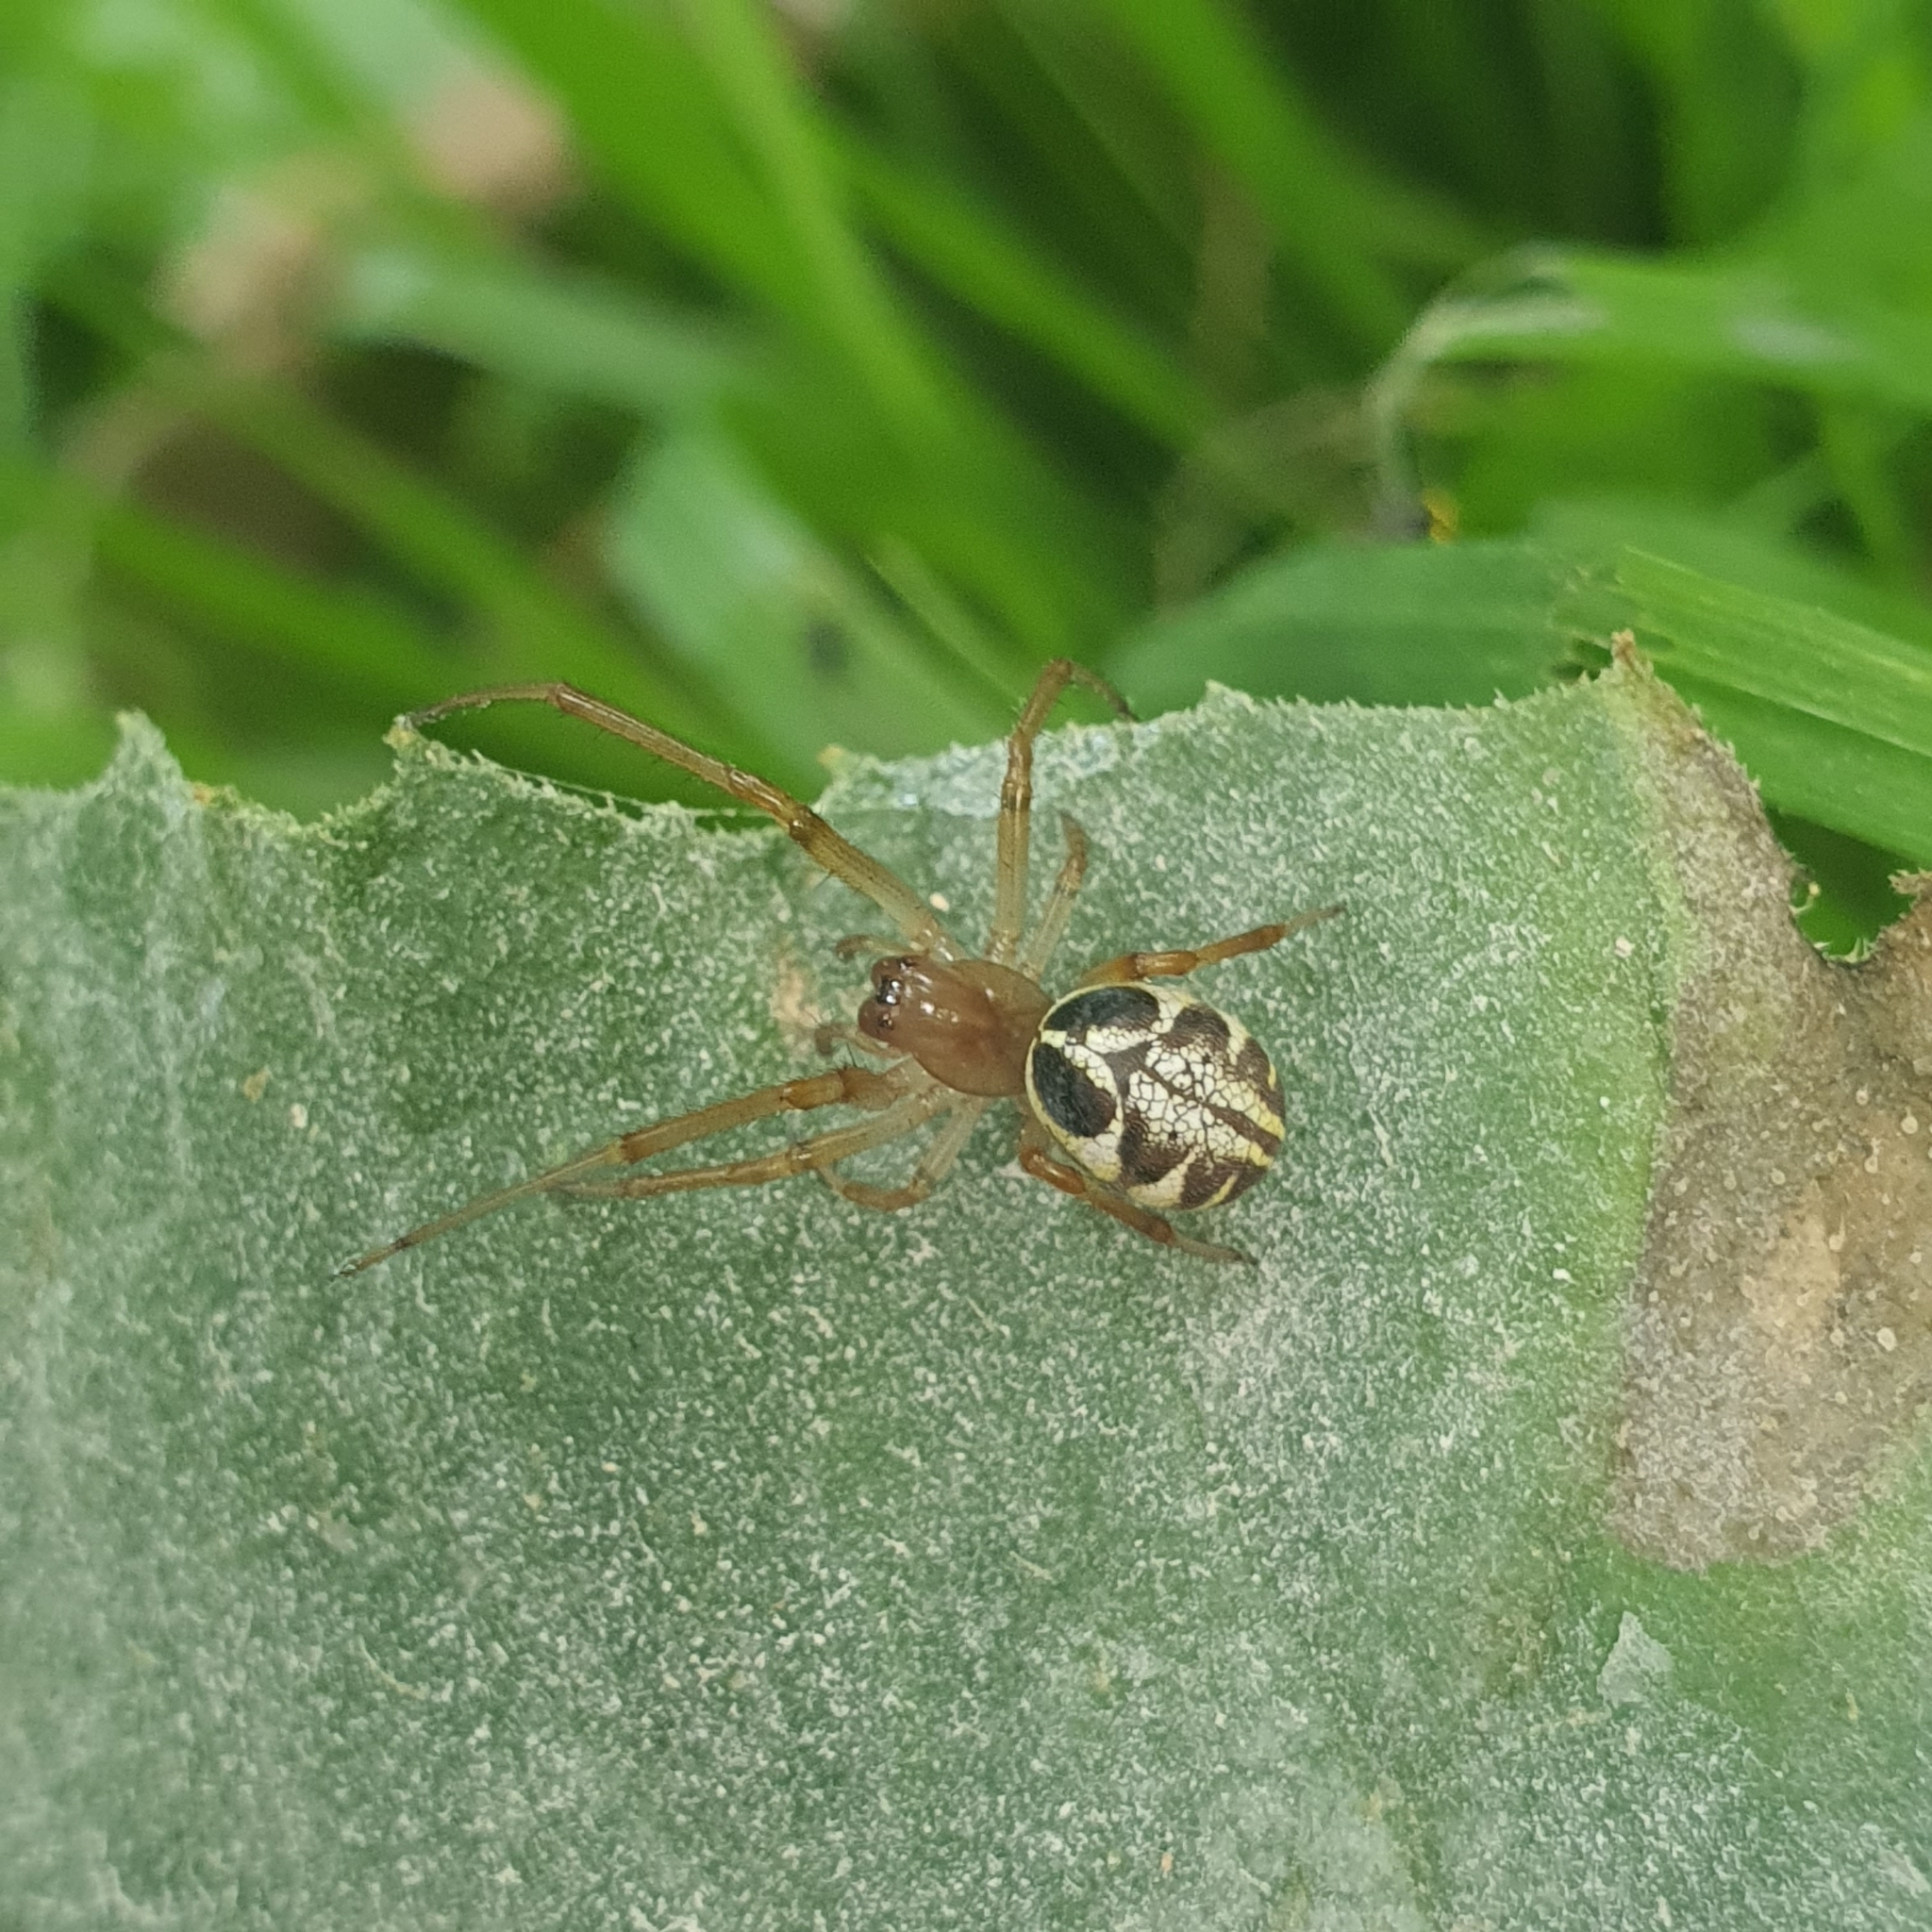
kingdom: Animalia
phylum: Arthropoda
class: Arachnida
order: Araneae
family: Araneidae
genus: Phonognatha
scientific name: Phonognatha graeffei
